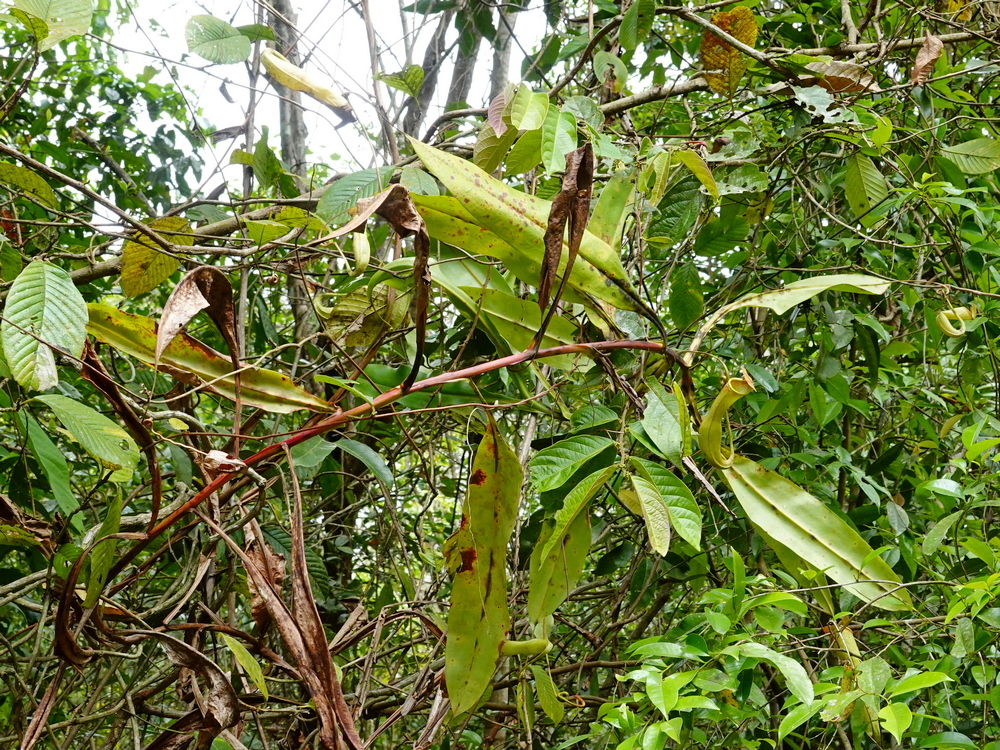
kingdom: Plantae
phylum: Tracheophyta
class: Magnoliopsida
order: Caryophyllales
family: Nepenthaceae
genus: Nepenthes
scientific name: Nepenthes khasiana
